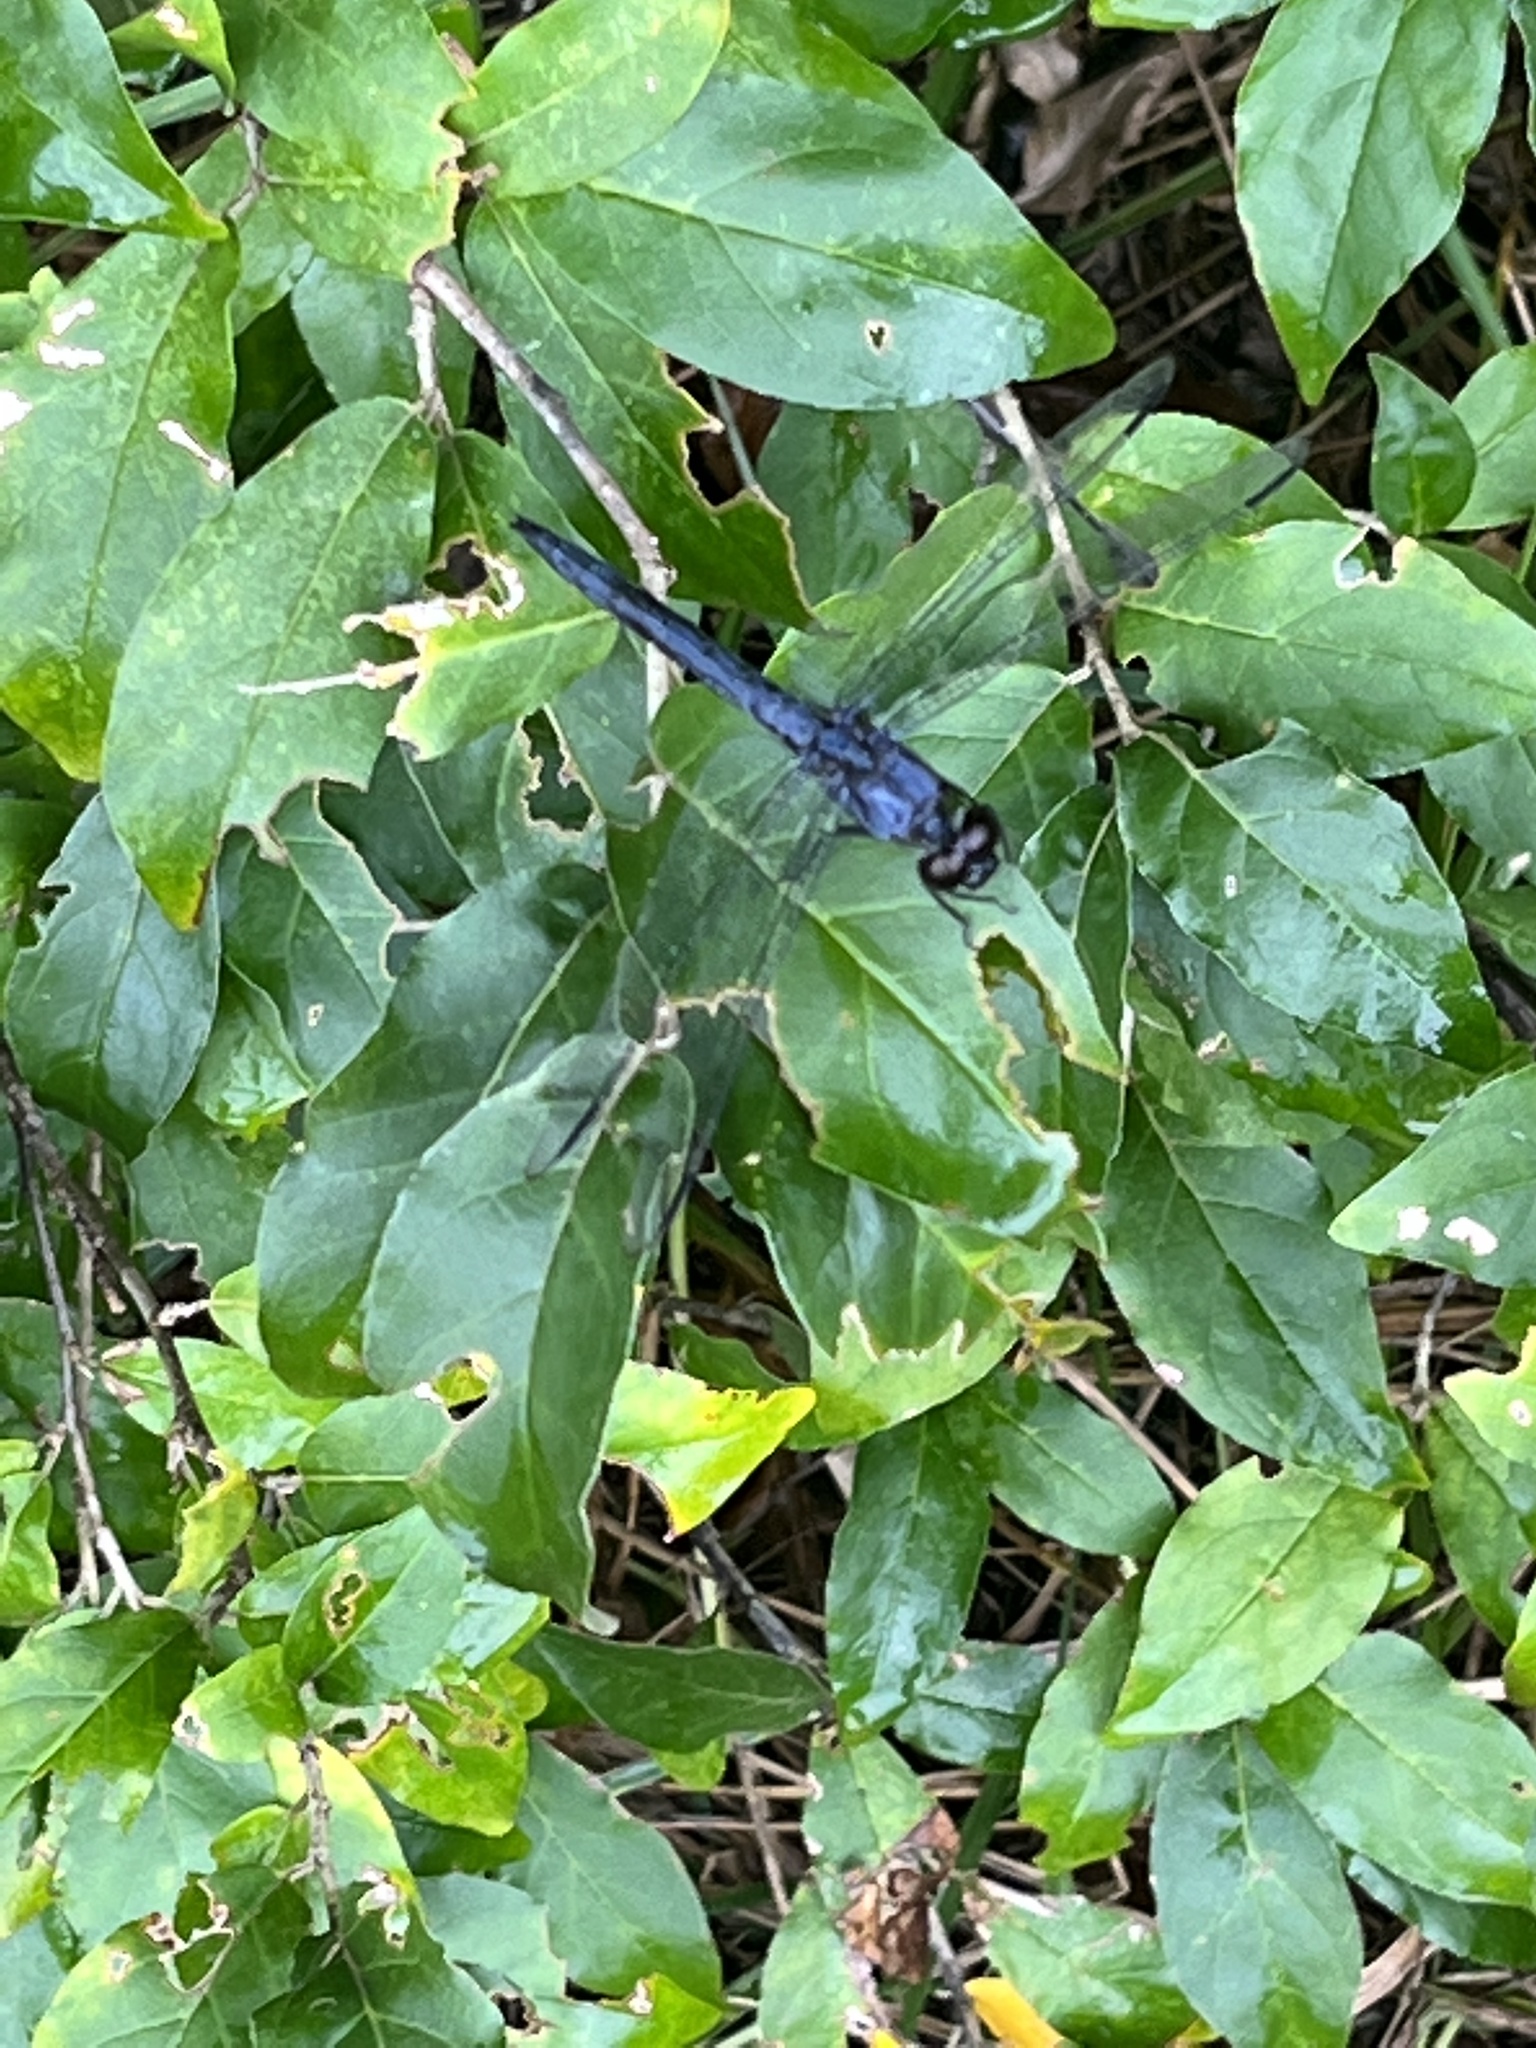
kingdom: Animalia
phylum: Arthropoda
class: Insecta
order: Odonata
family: Libellulidae
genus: Libellula
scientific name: Libellula incesta
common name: Slaty skimmer
